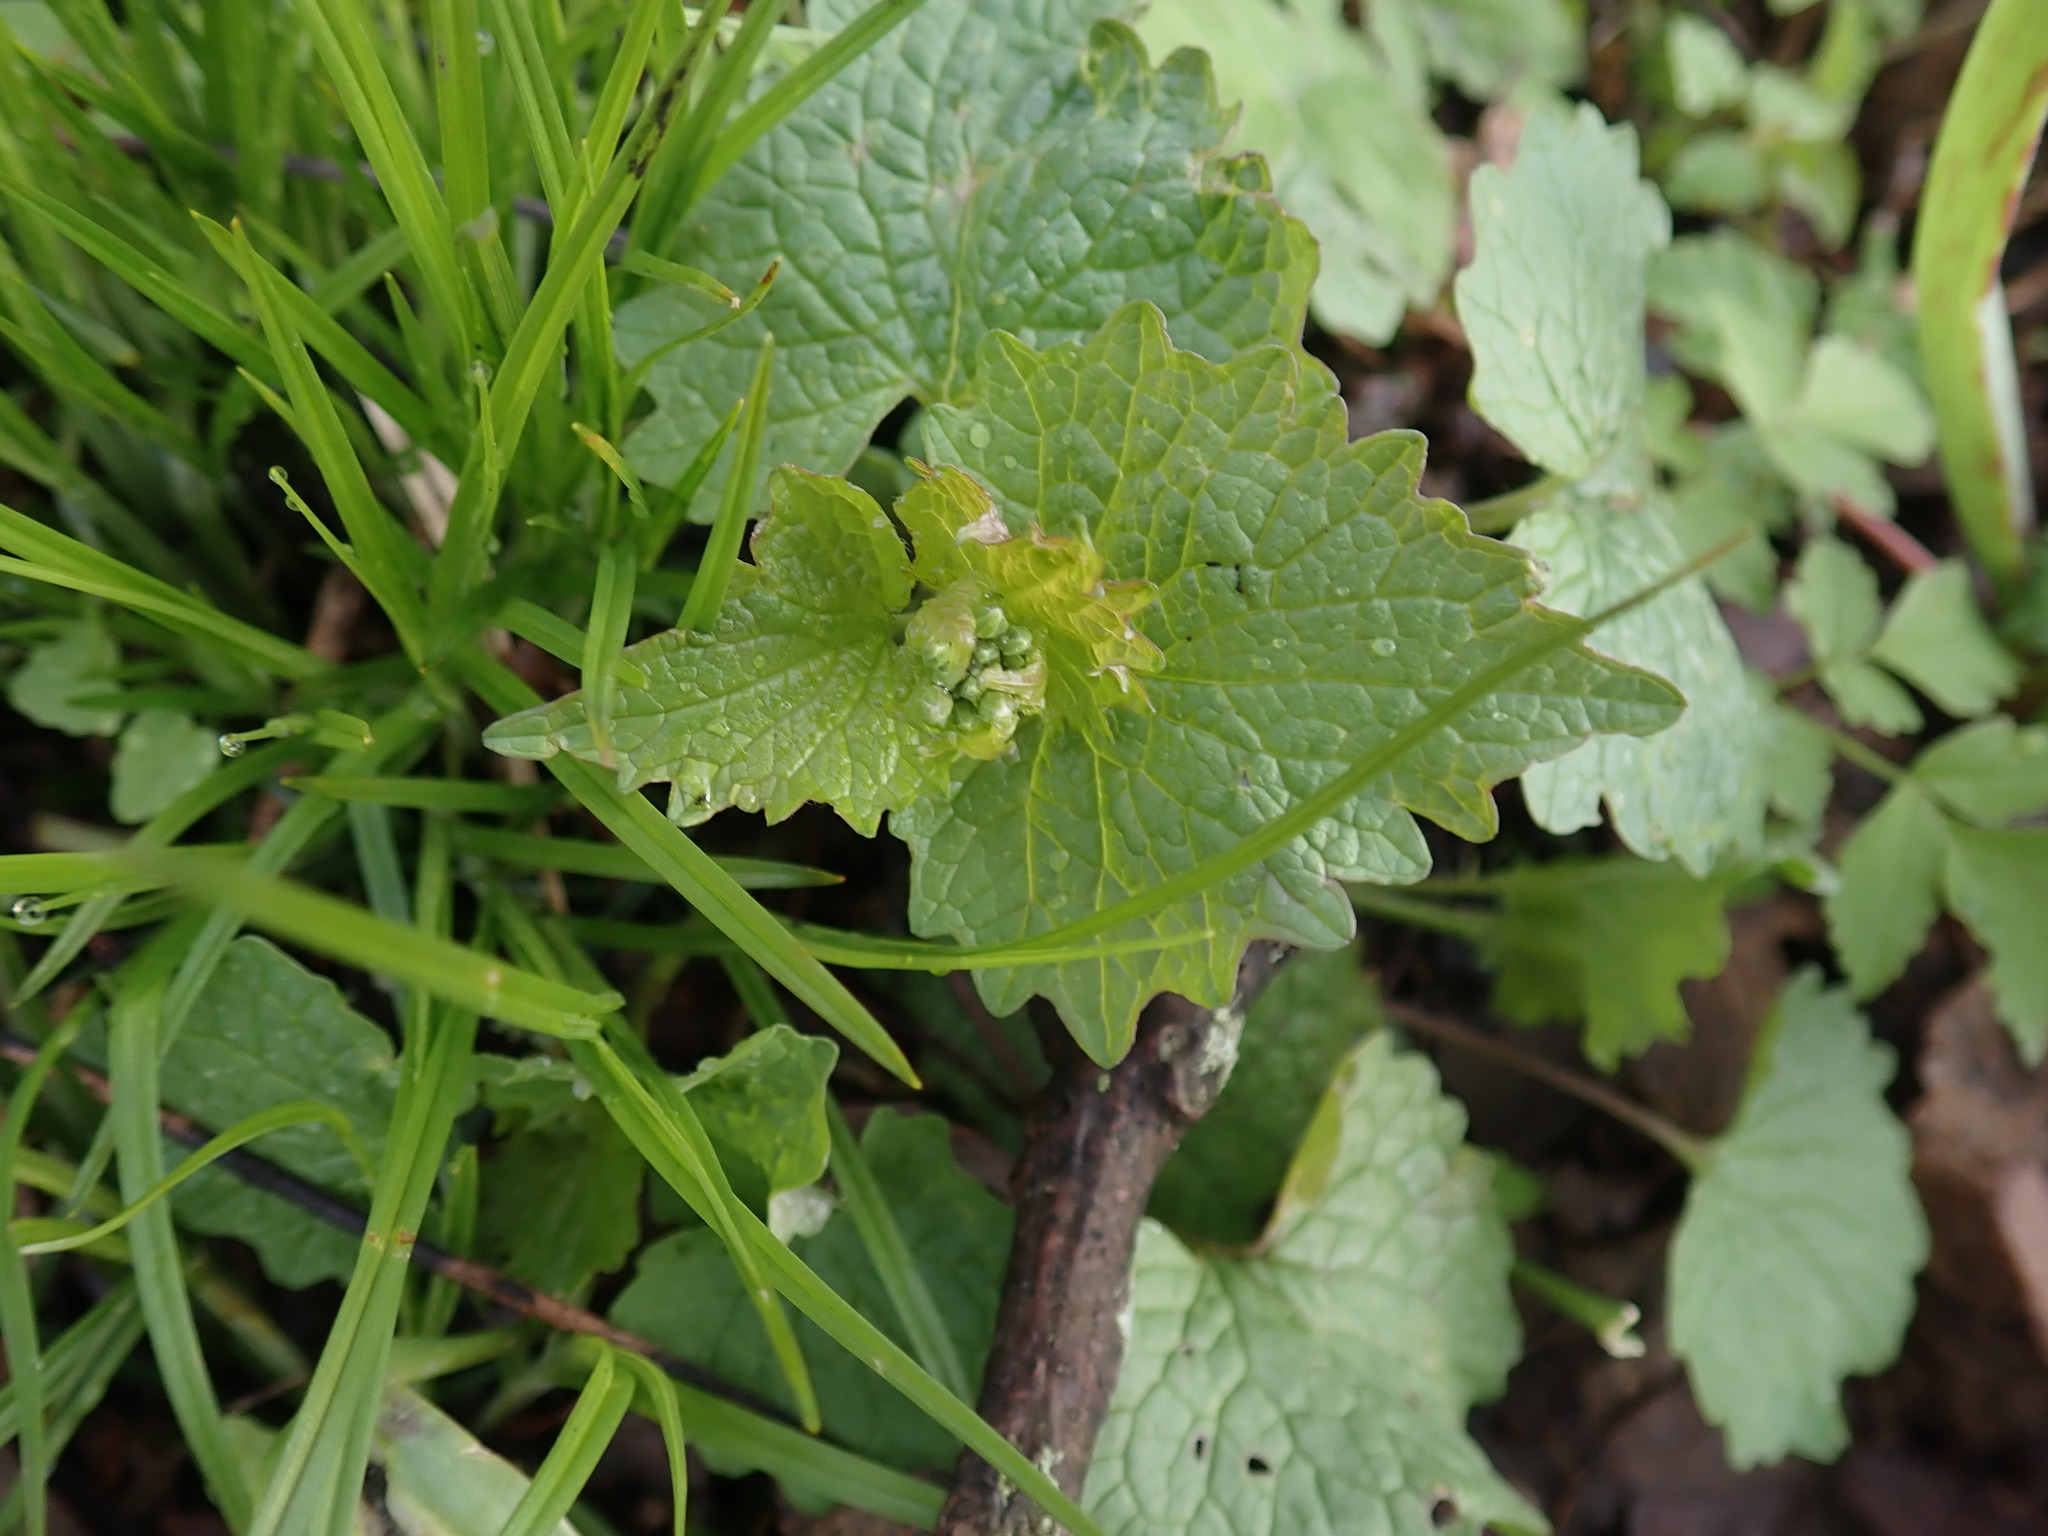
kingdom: Plantae
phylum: Tracheophyta
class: Magnoliopsida
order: Brassicales
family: Brassicaceae
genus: Alliaria
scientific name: Alliaria petiolata
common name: Garlic mustard
